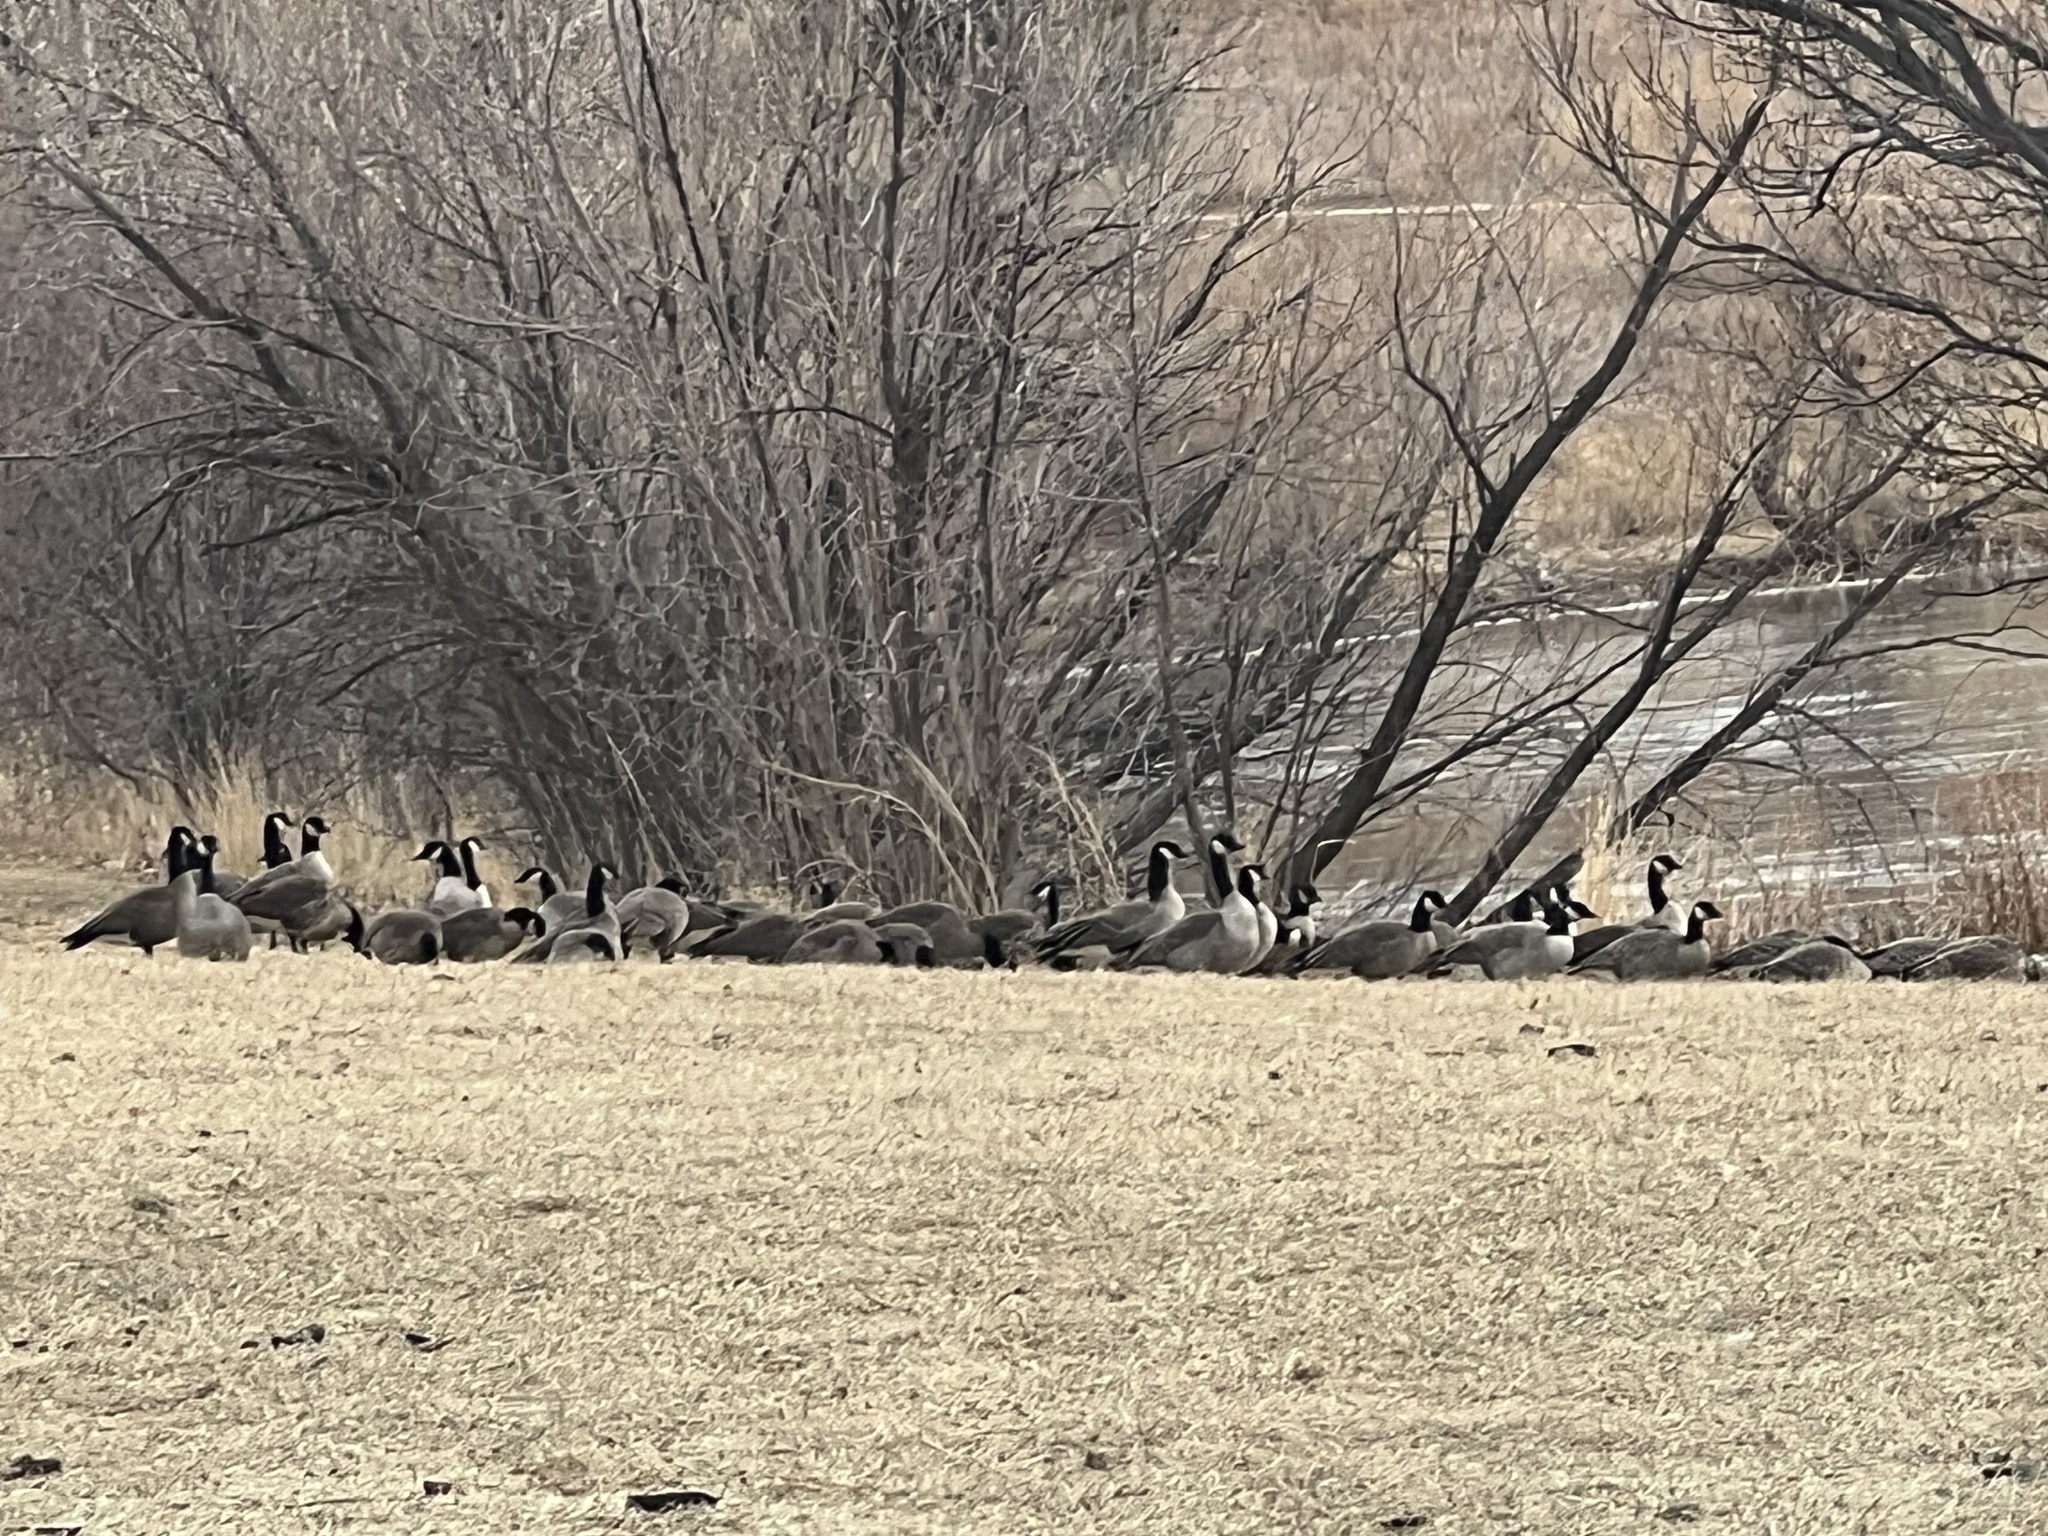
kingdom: Animalia
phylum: Chordata
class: Aves
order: Anseriformes
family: Anatidae
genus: Branta
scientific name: Branta hutchinsii
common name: Cackling goose
